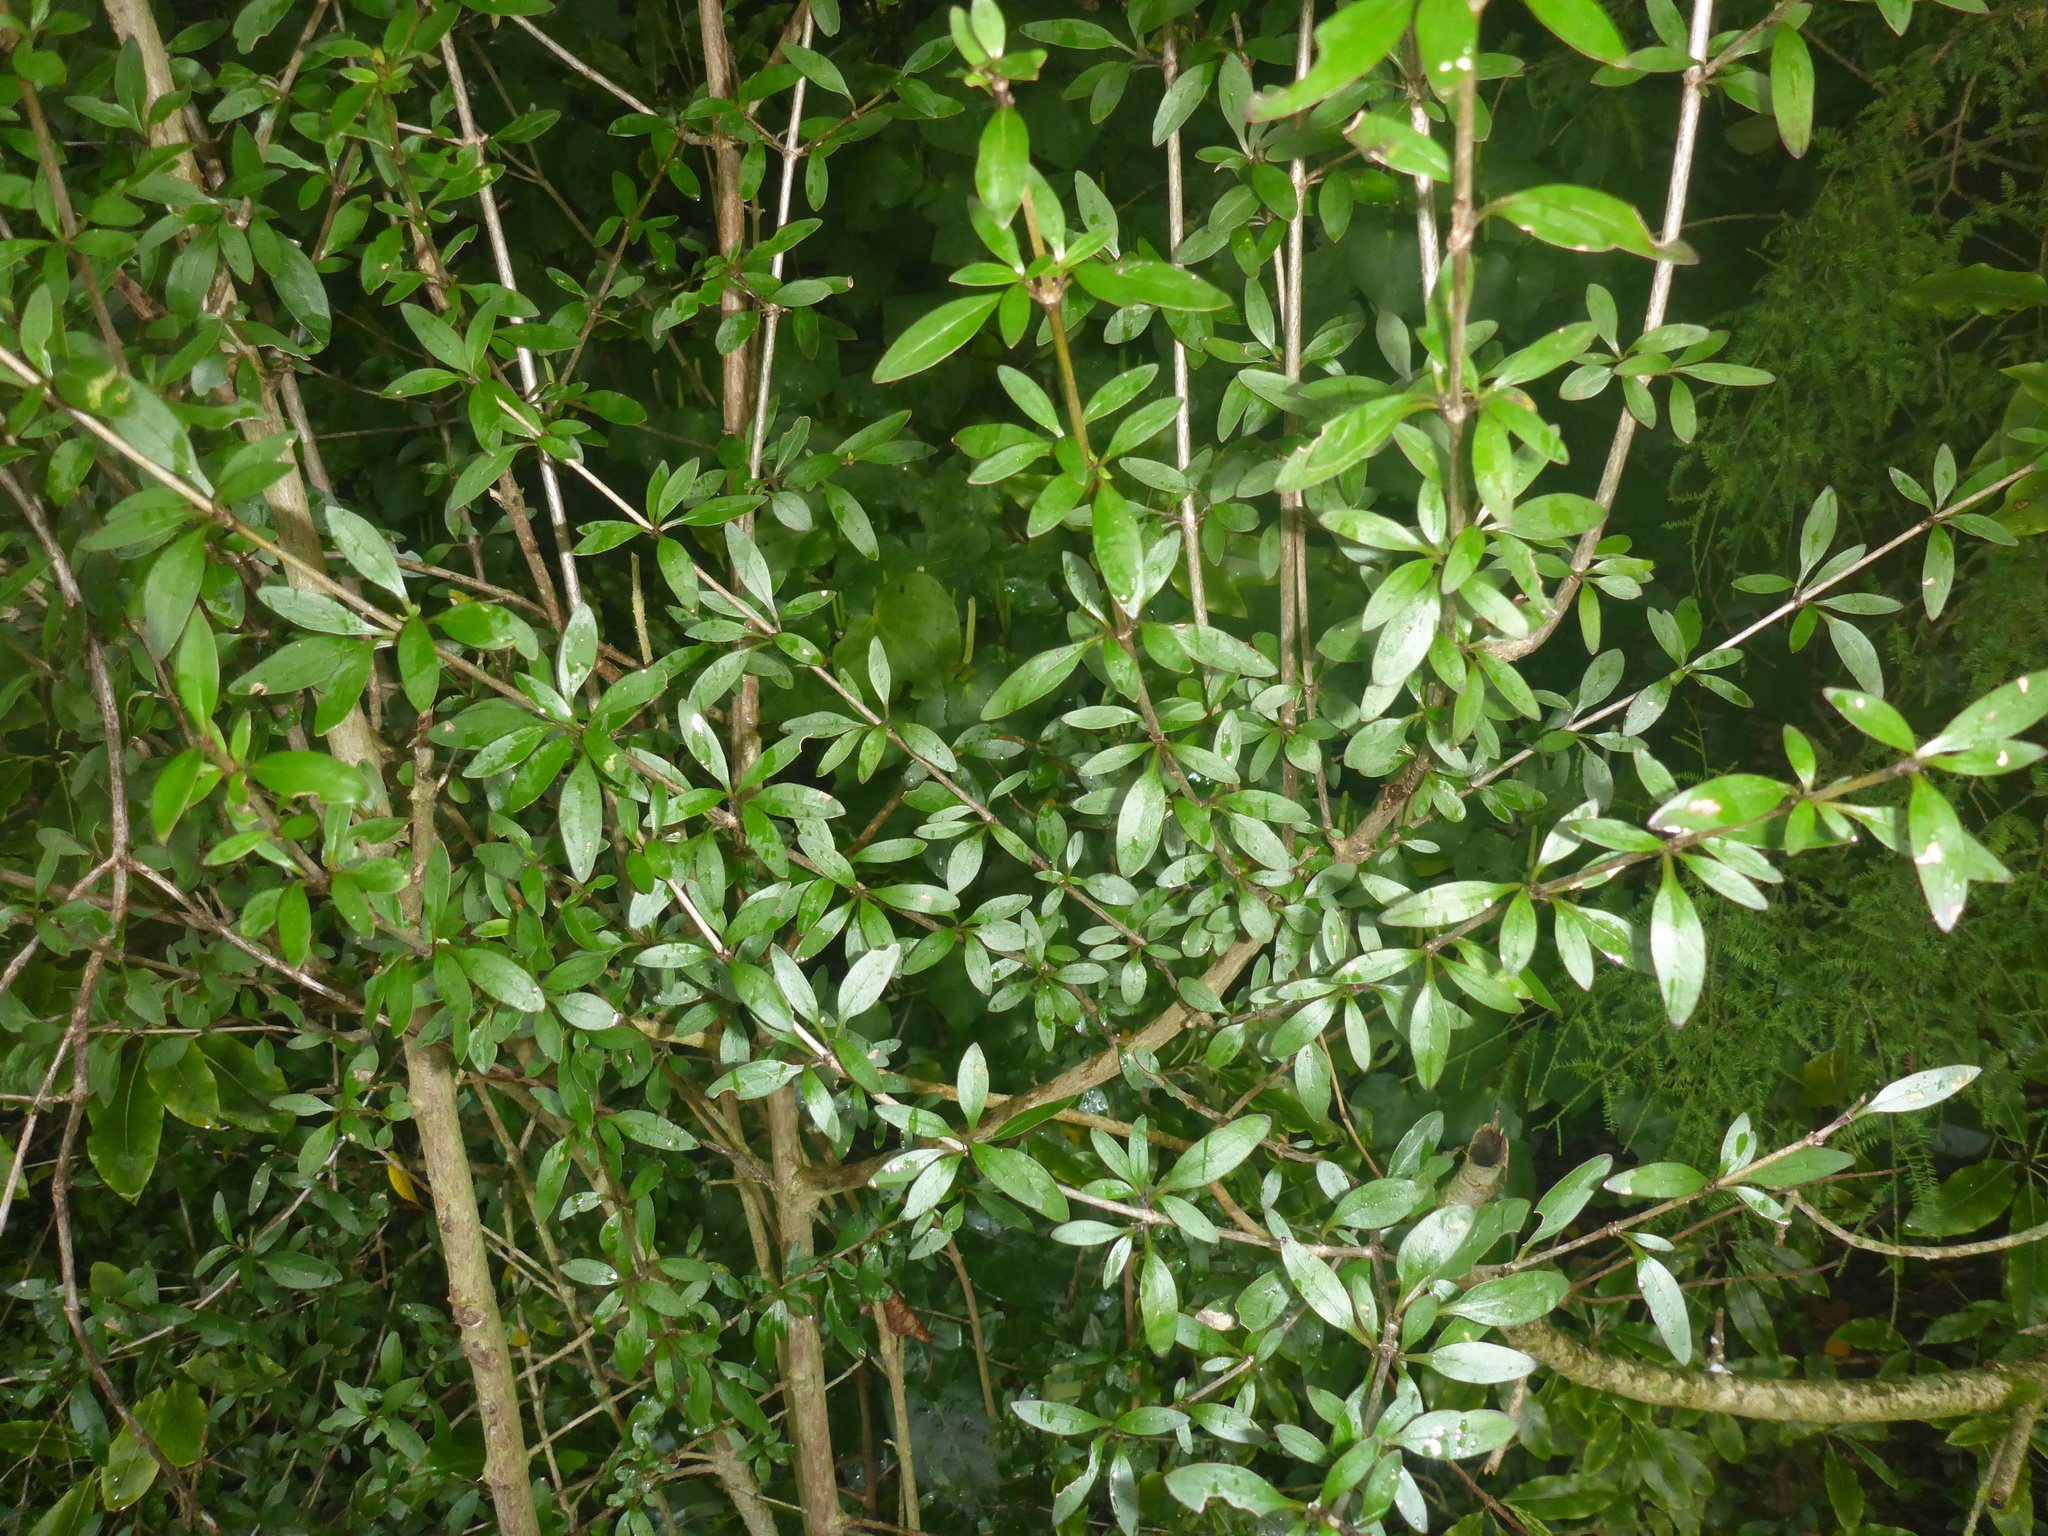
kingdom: Plantae
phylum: Tracheophyta
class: Magnoliopsida
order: Gentianales
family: Rubiaceae
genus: Coprosma
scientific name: Coprosma cunninghamii
